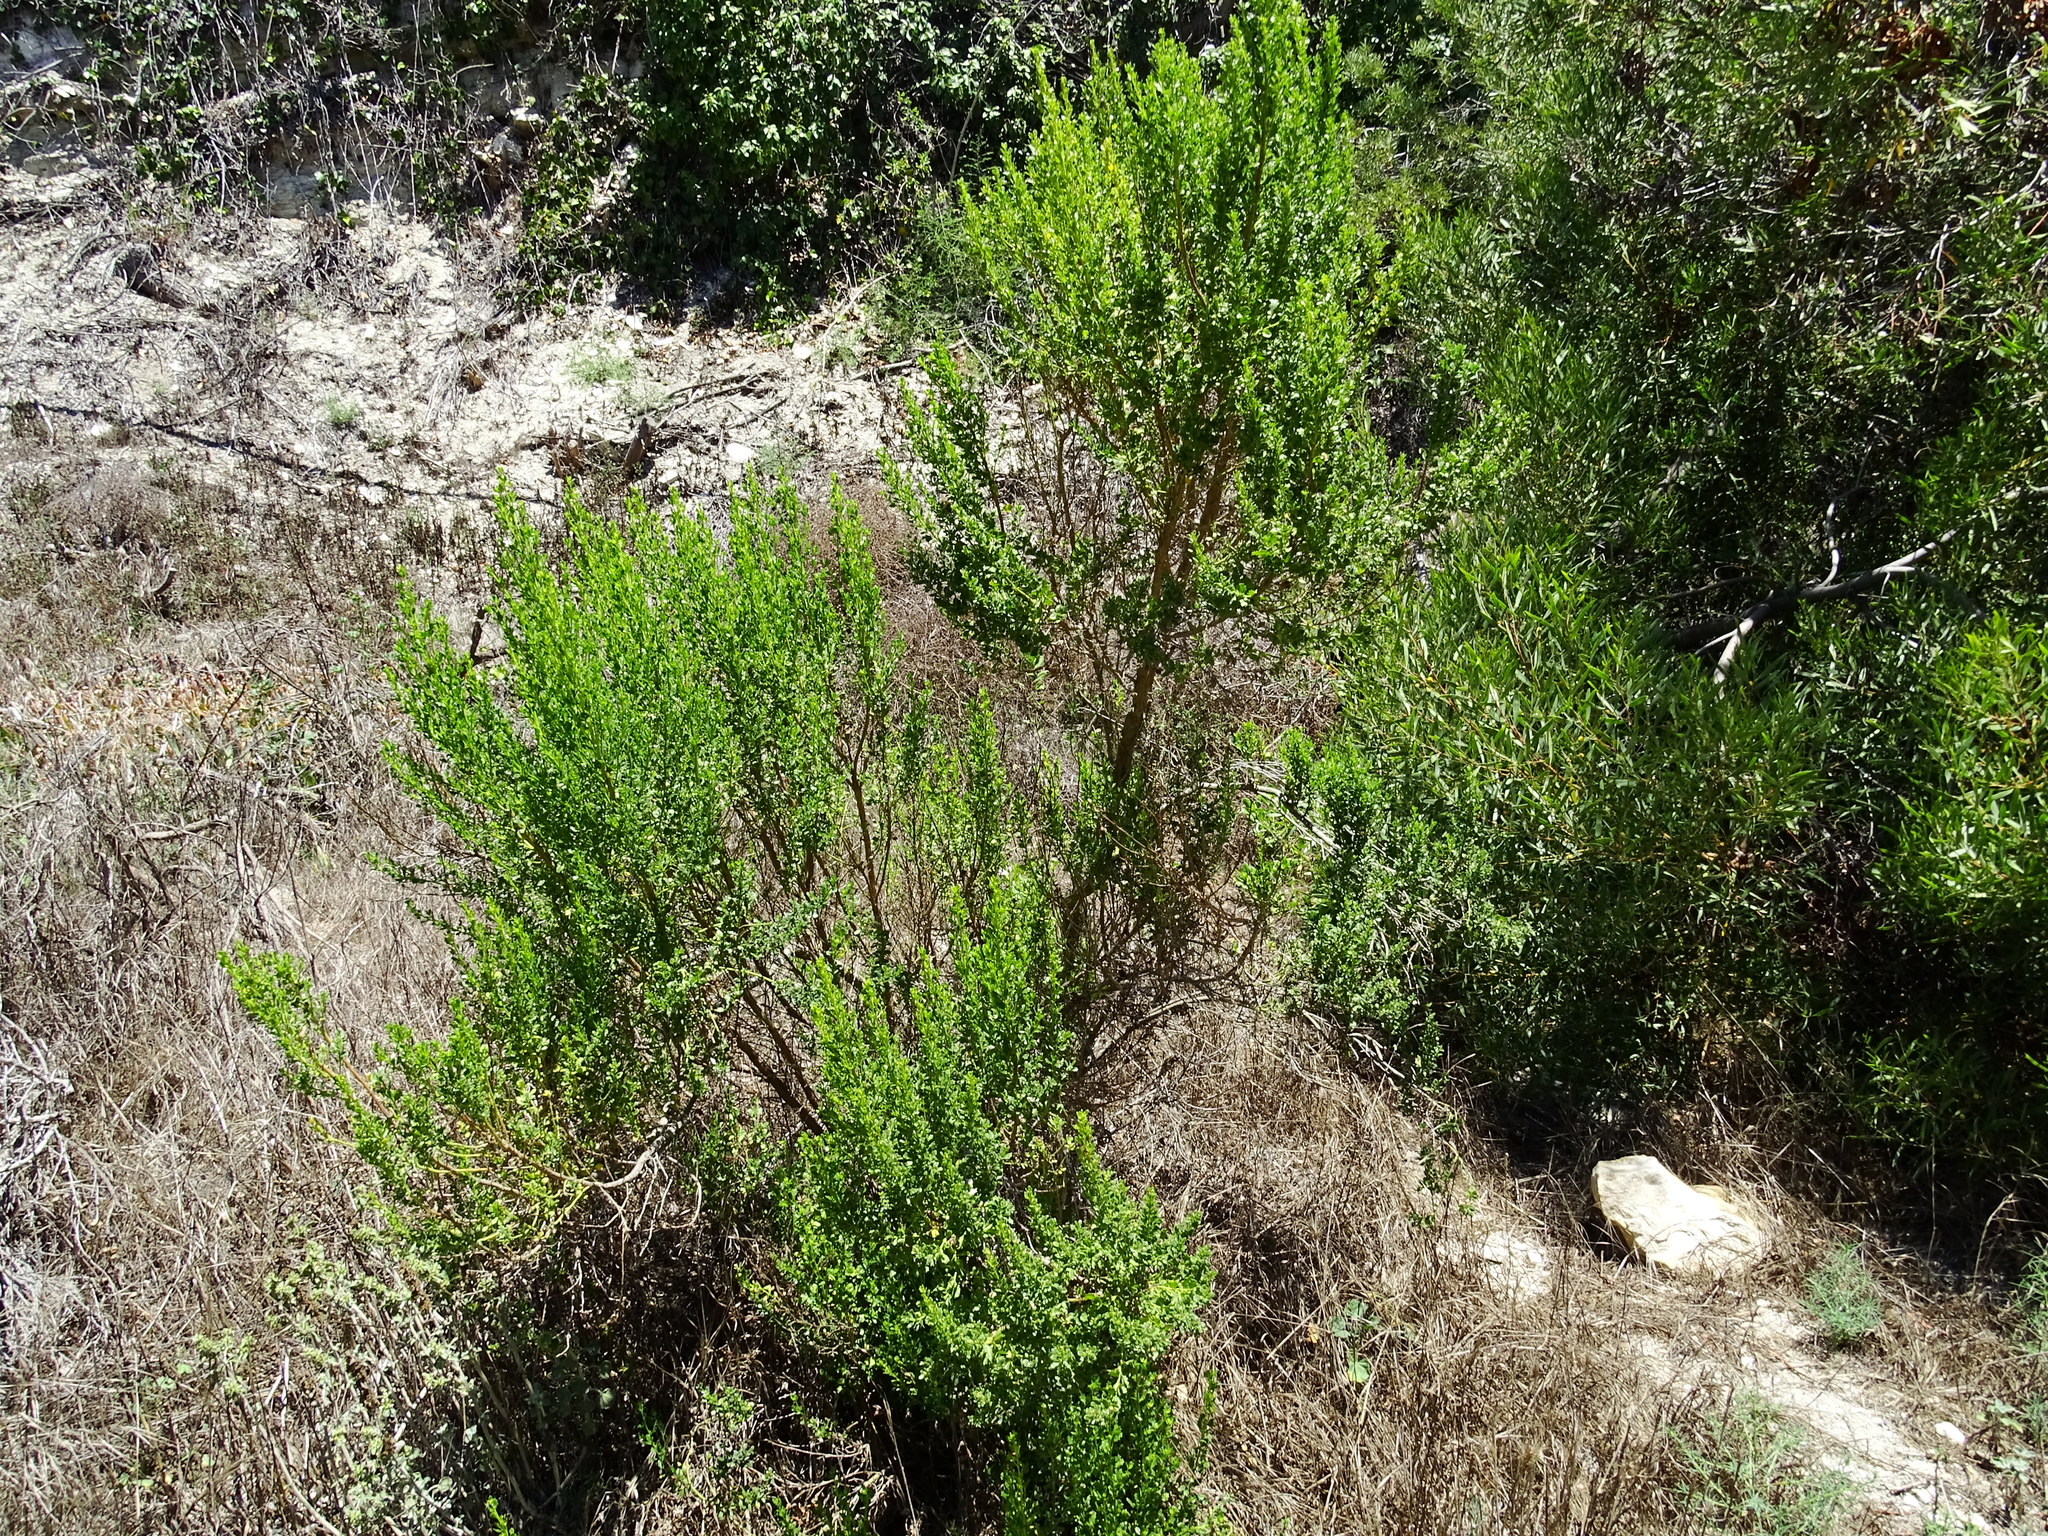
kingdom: Plantae
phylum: Tracheophyta
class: Magnoliopsida
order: Asterales
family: Asteraceae
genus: Baccharis
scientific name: Baccharis pilularis
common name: Coyotebrush
